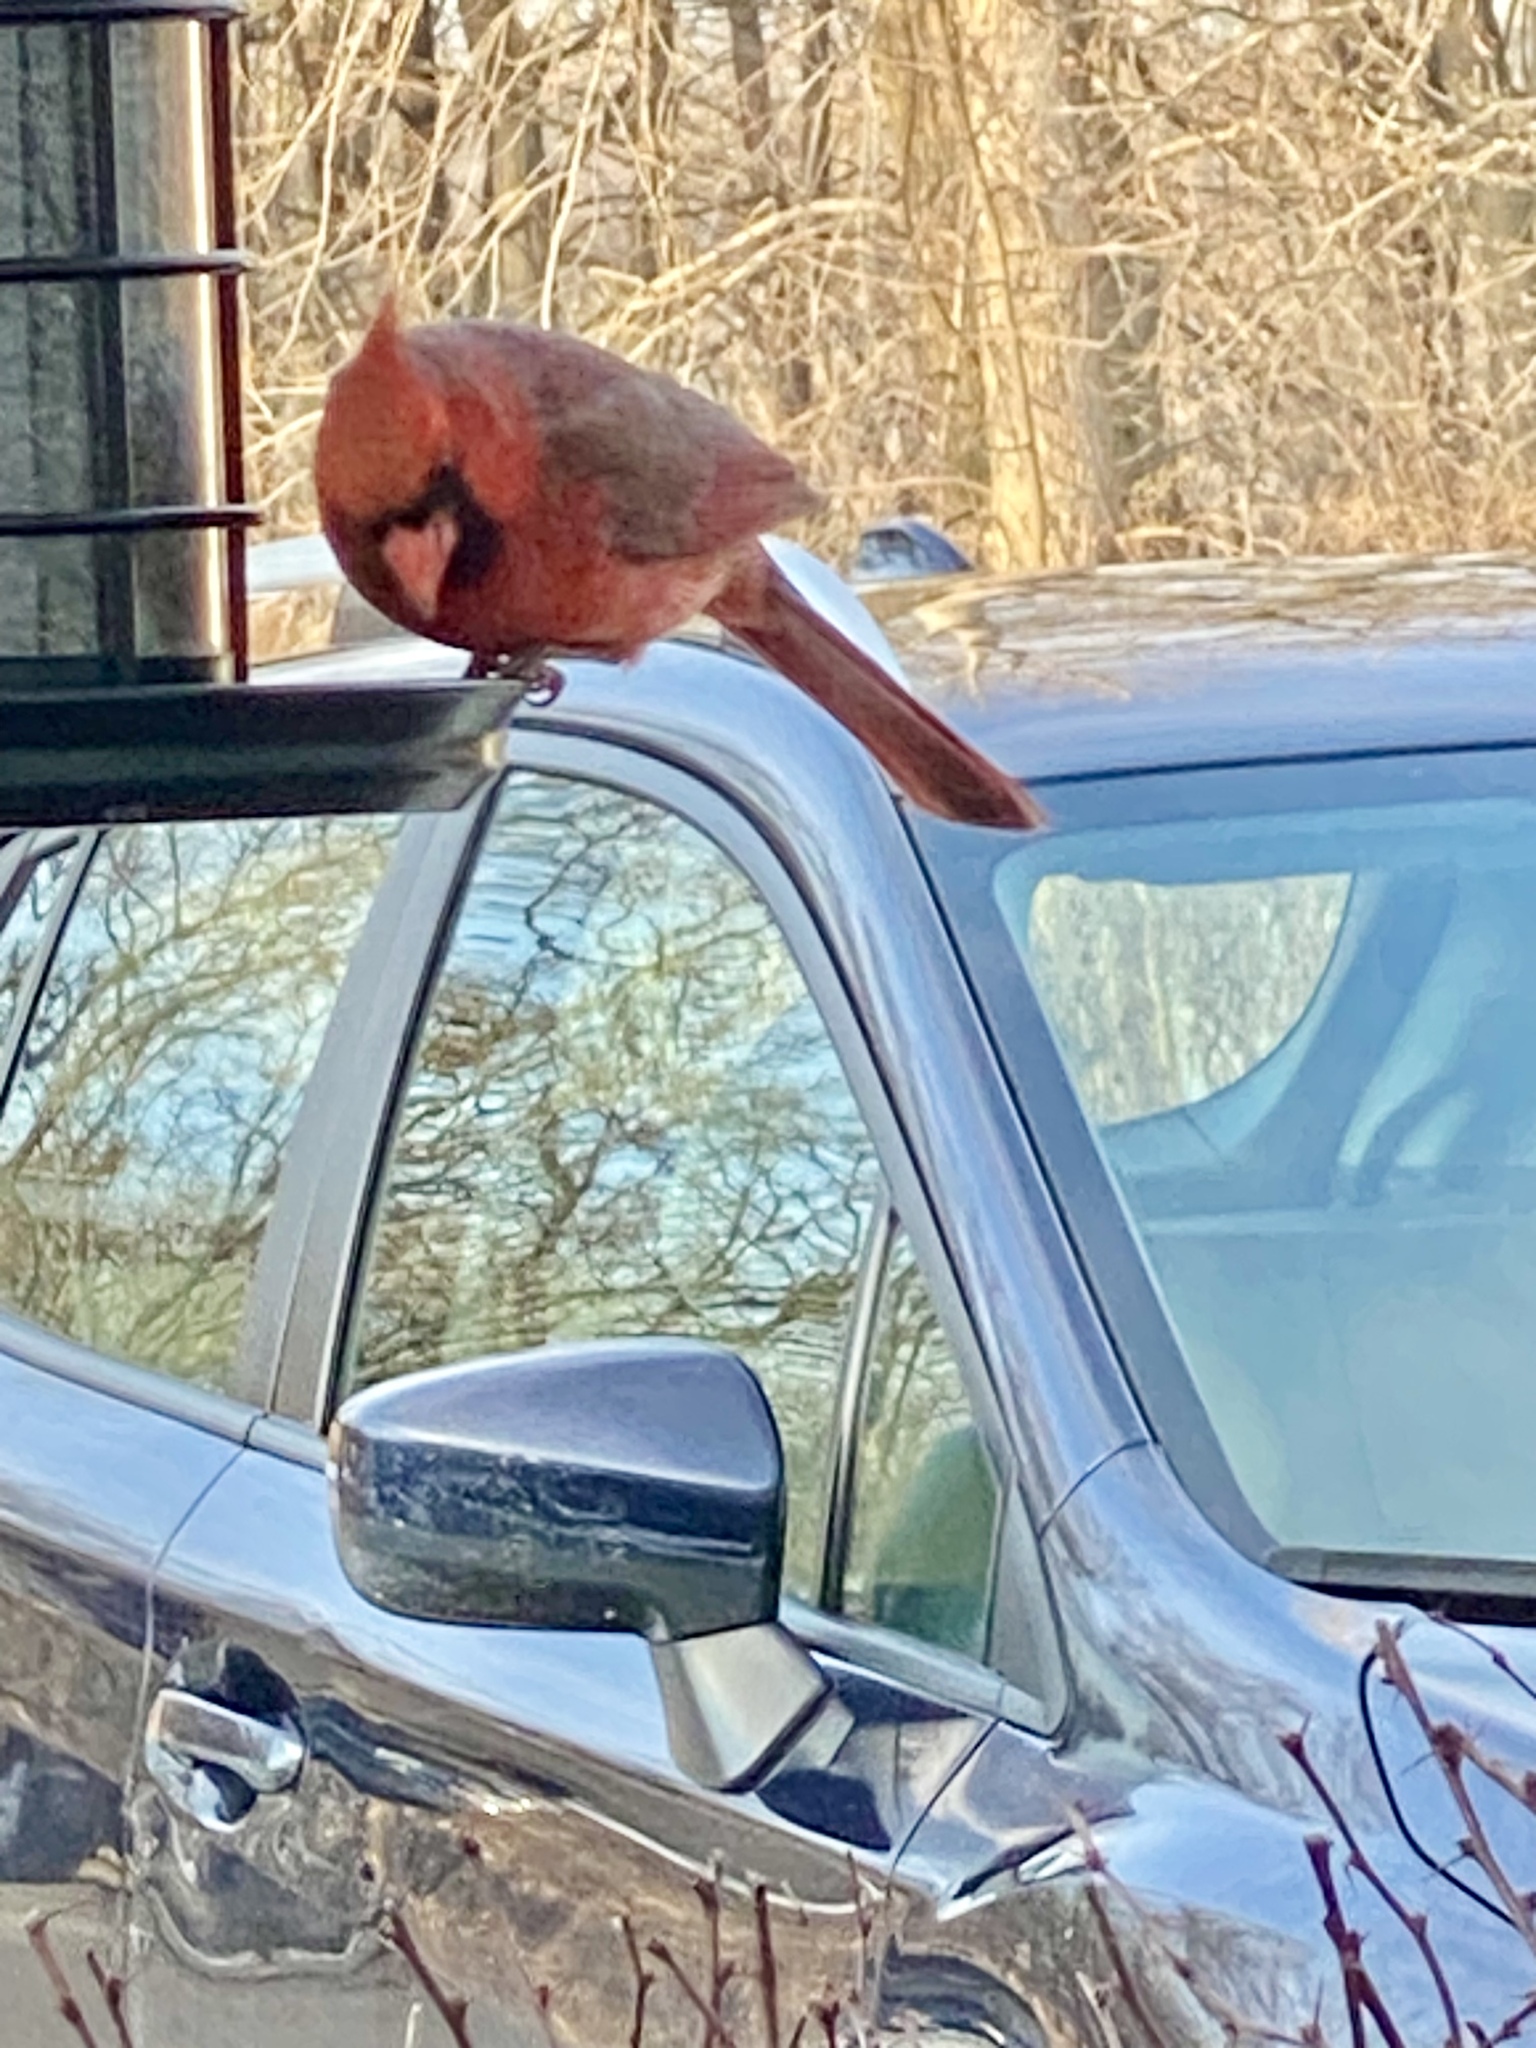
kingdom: Animalia
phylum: Chordata
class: Aves
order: Passeriformes
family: Cardinalidae
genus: Cardinalis
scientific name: Cardinalis cardinalis
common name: Northern cardinal
